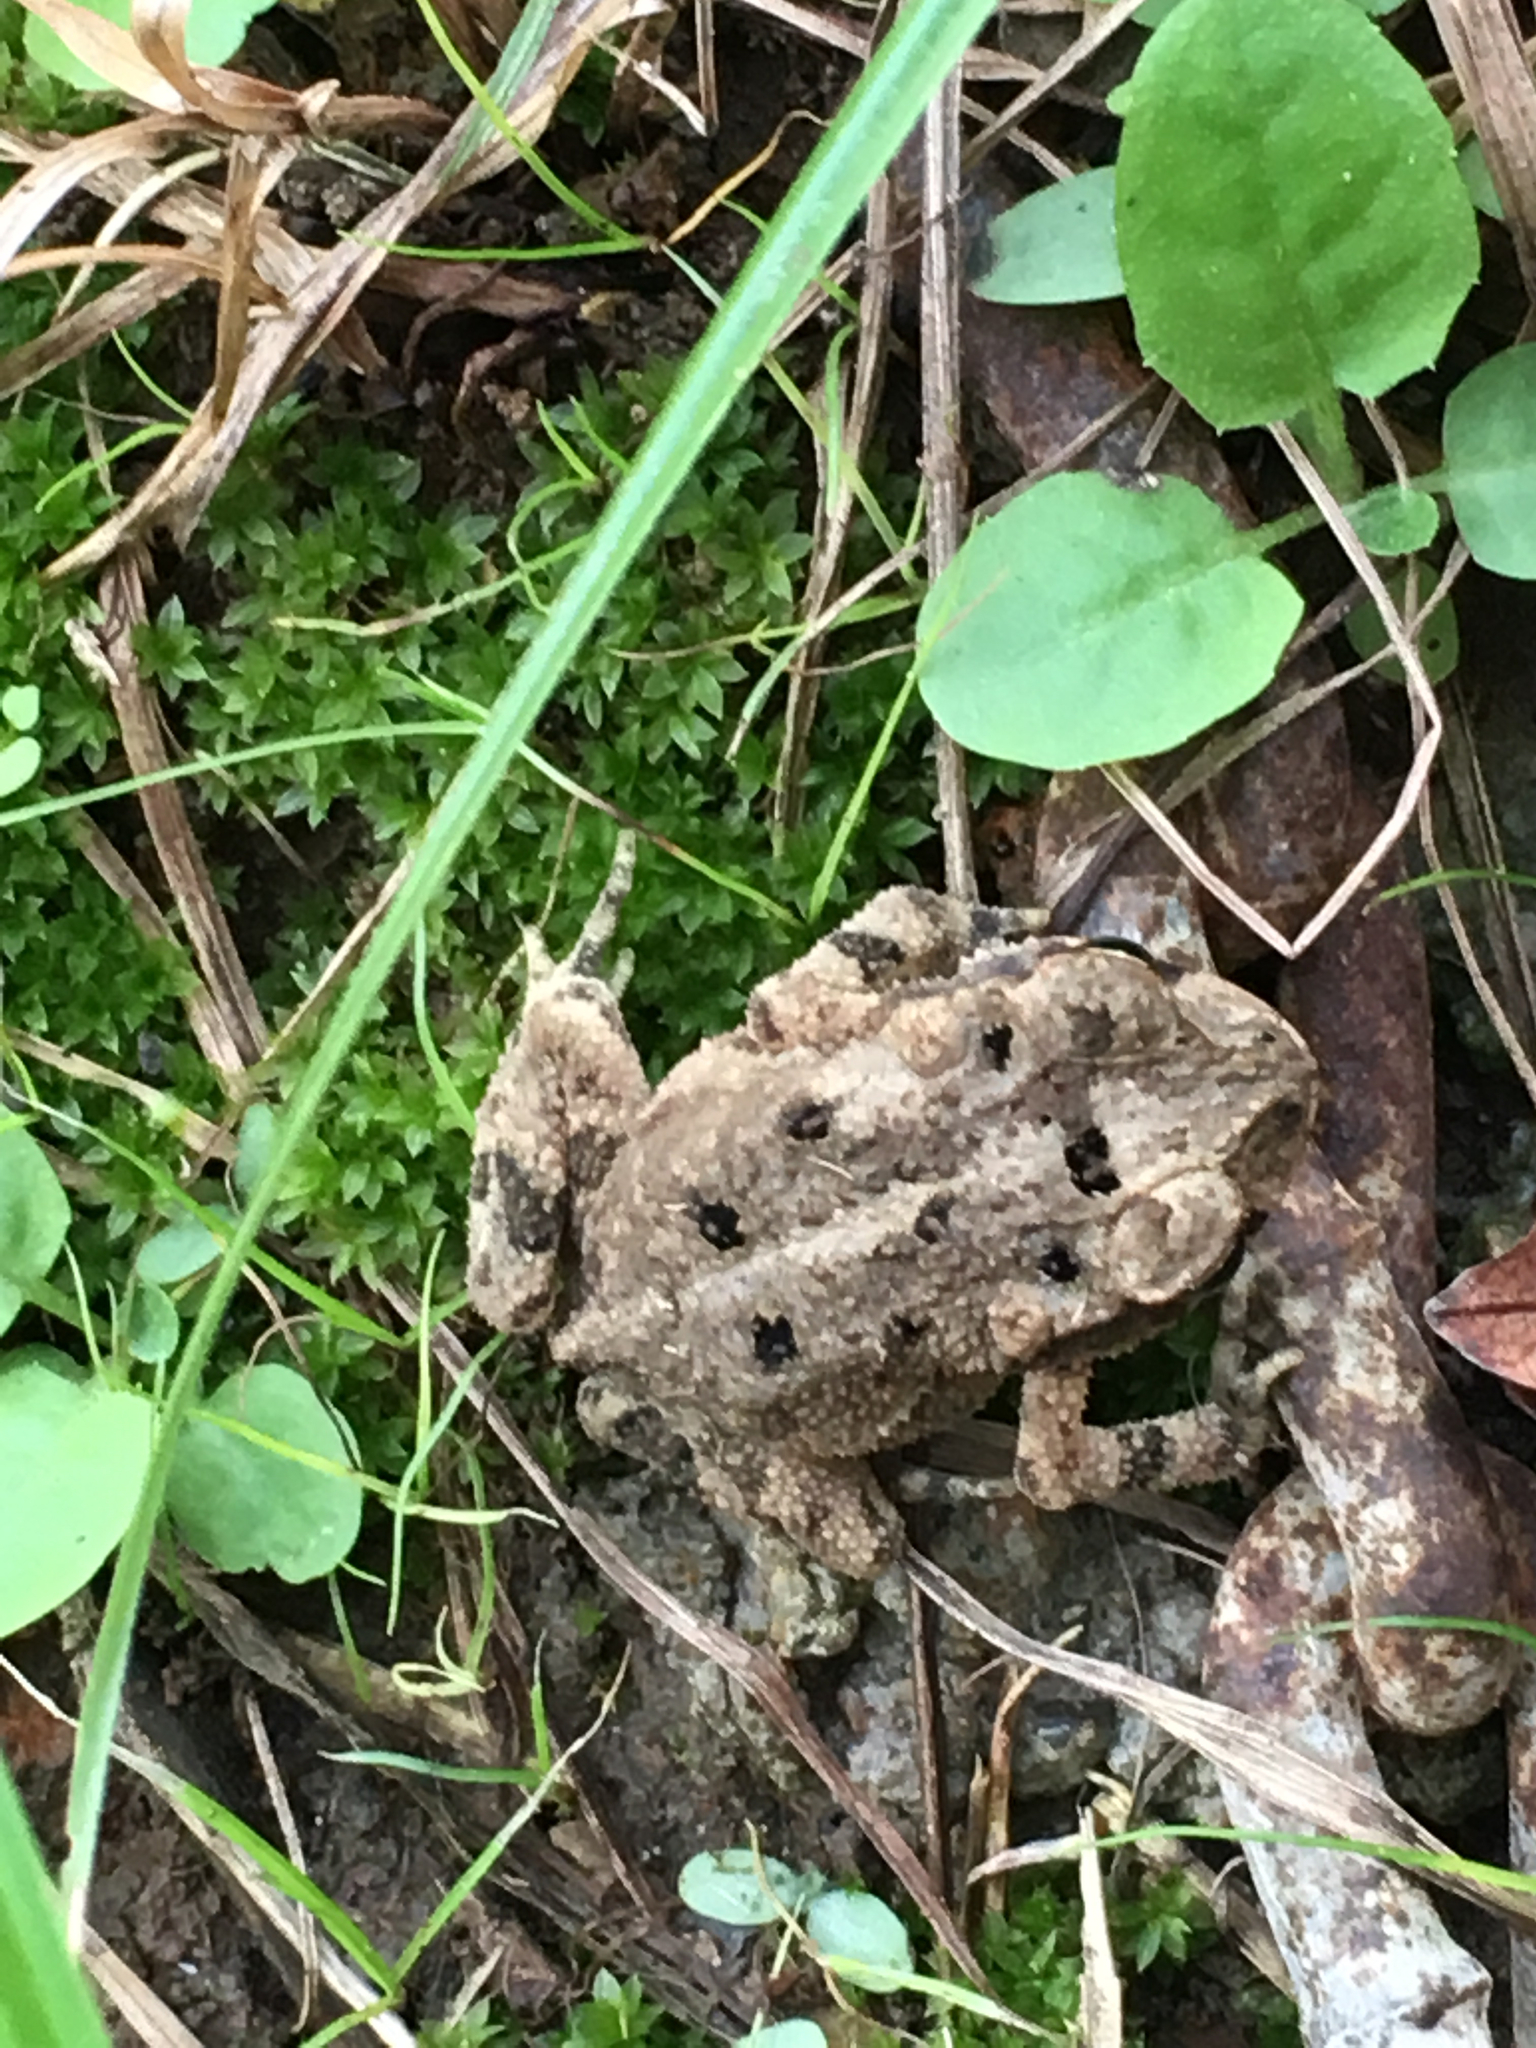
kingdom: Animalia
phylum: Chordata
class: Amphibia
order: Anura
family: Bufonidae
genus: Incilius
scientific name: Incilius nebulifer
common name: Gulf coast toad
